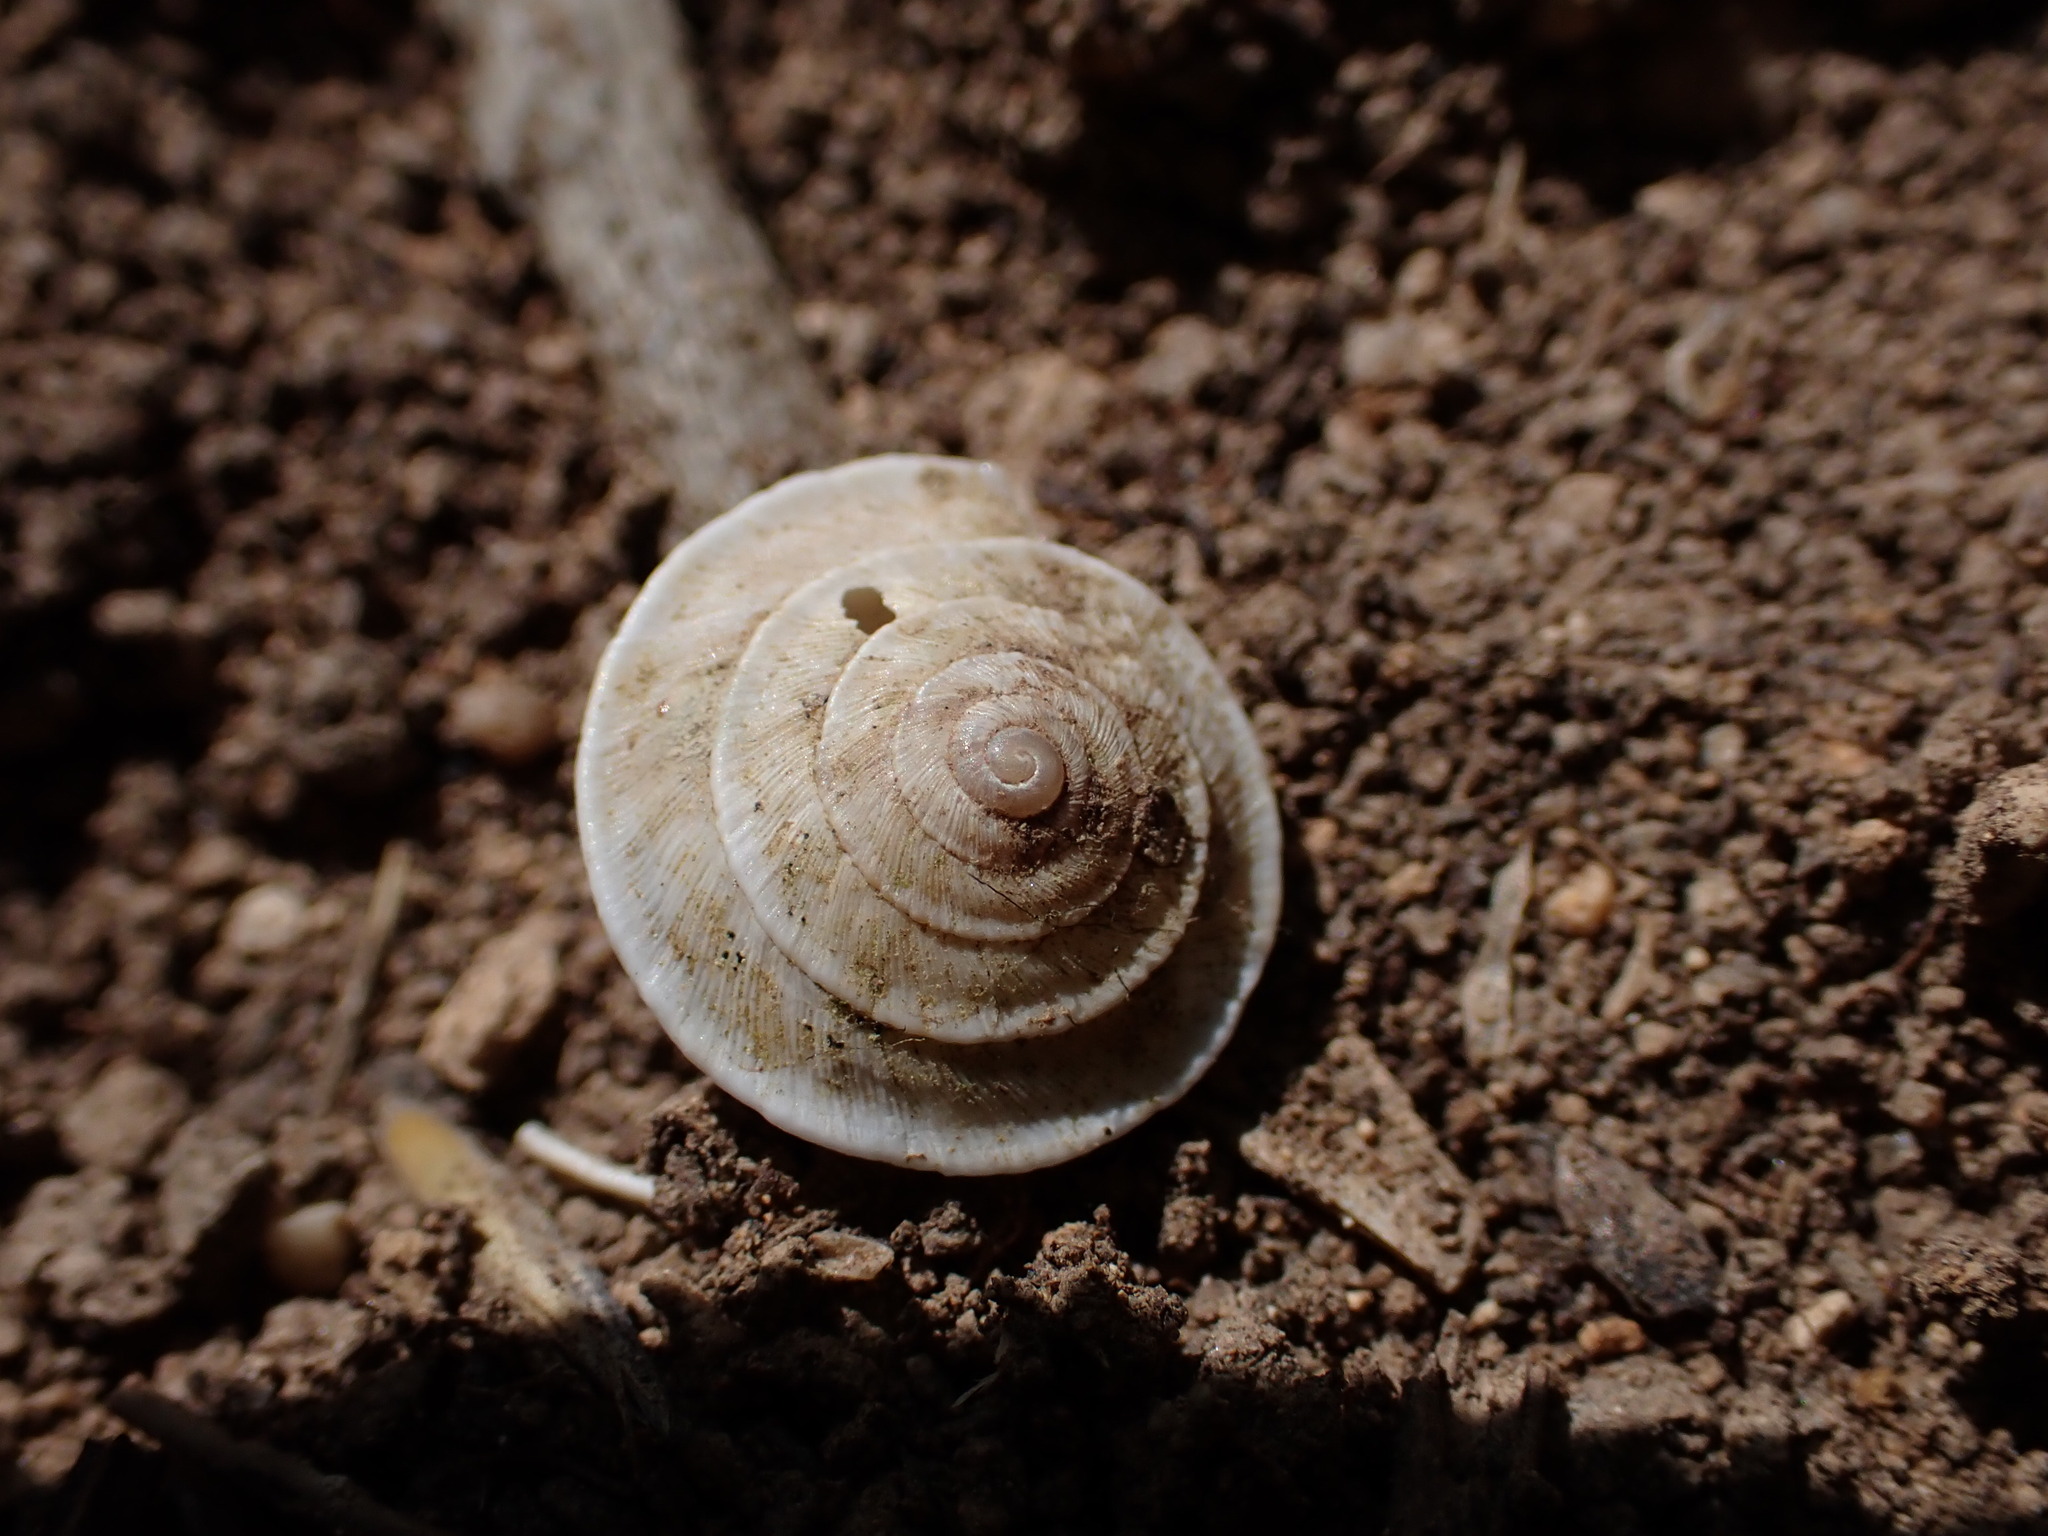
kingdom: Animalia
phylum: Mollusca
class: Gastropoda
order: Stylommatophora
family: Geomitridae
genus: Trochoidea
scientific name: Trochoidea elegans
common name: Elegant helicellid
